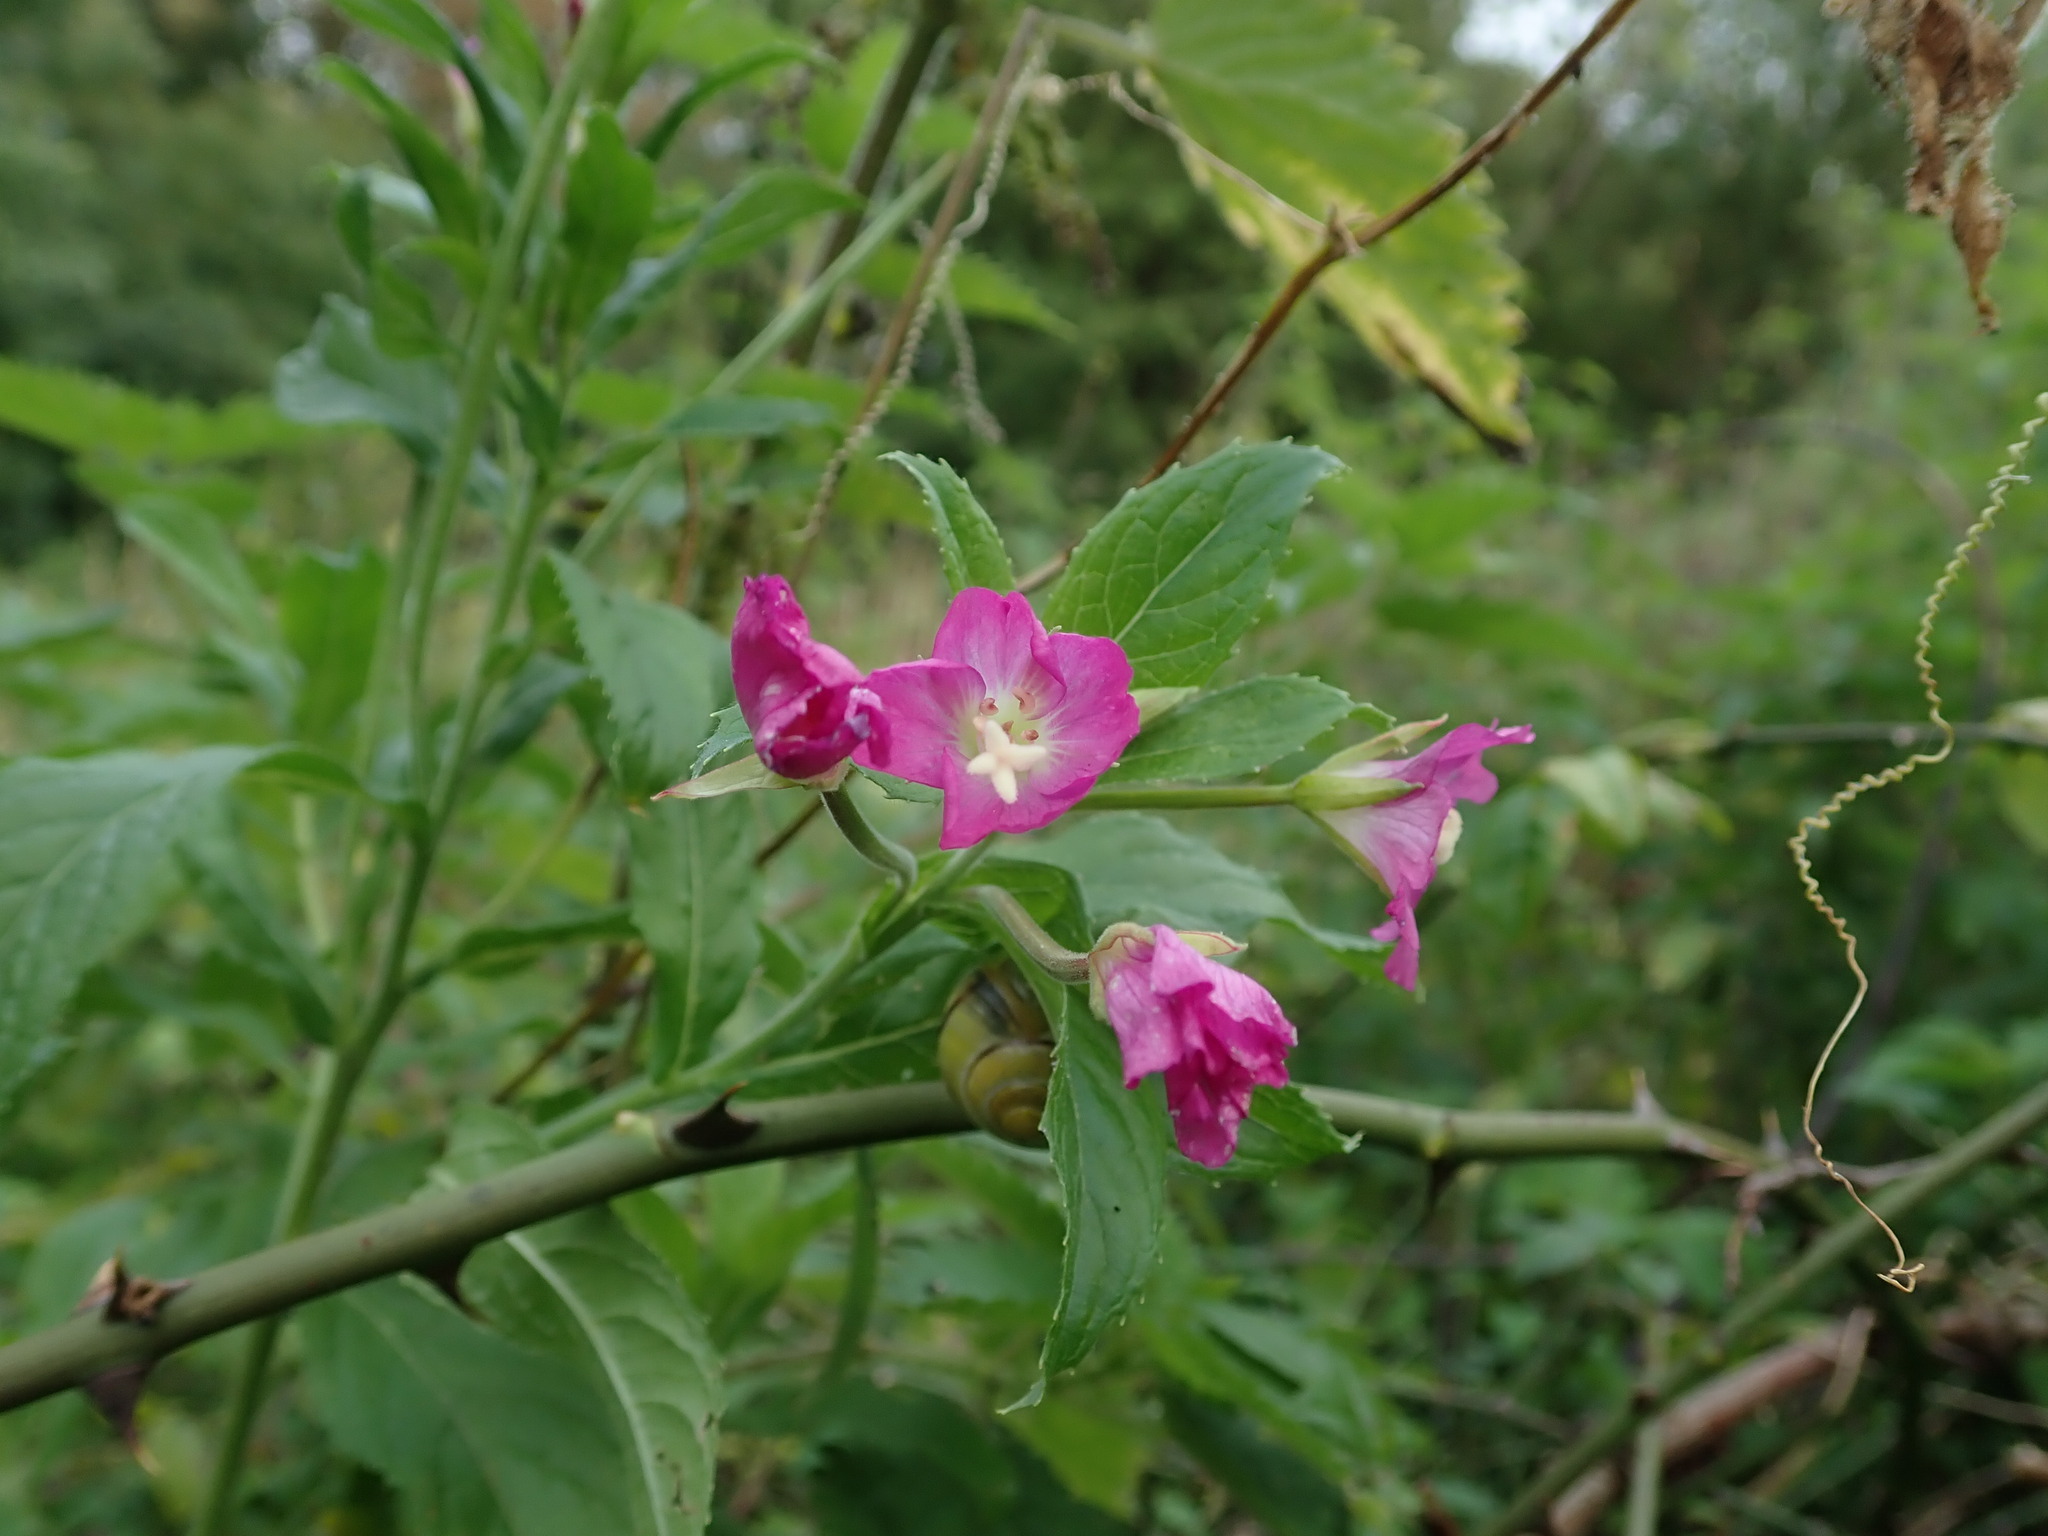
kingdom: Plantae
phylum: Tracheophyta
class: Magnoliopsida
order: Myrtales
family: Onagraceae
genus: Epilobium
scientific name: Epilobium hirsutum
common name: Great willowherb
